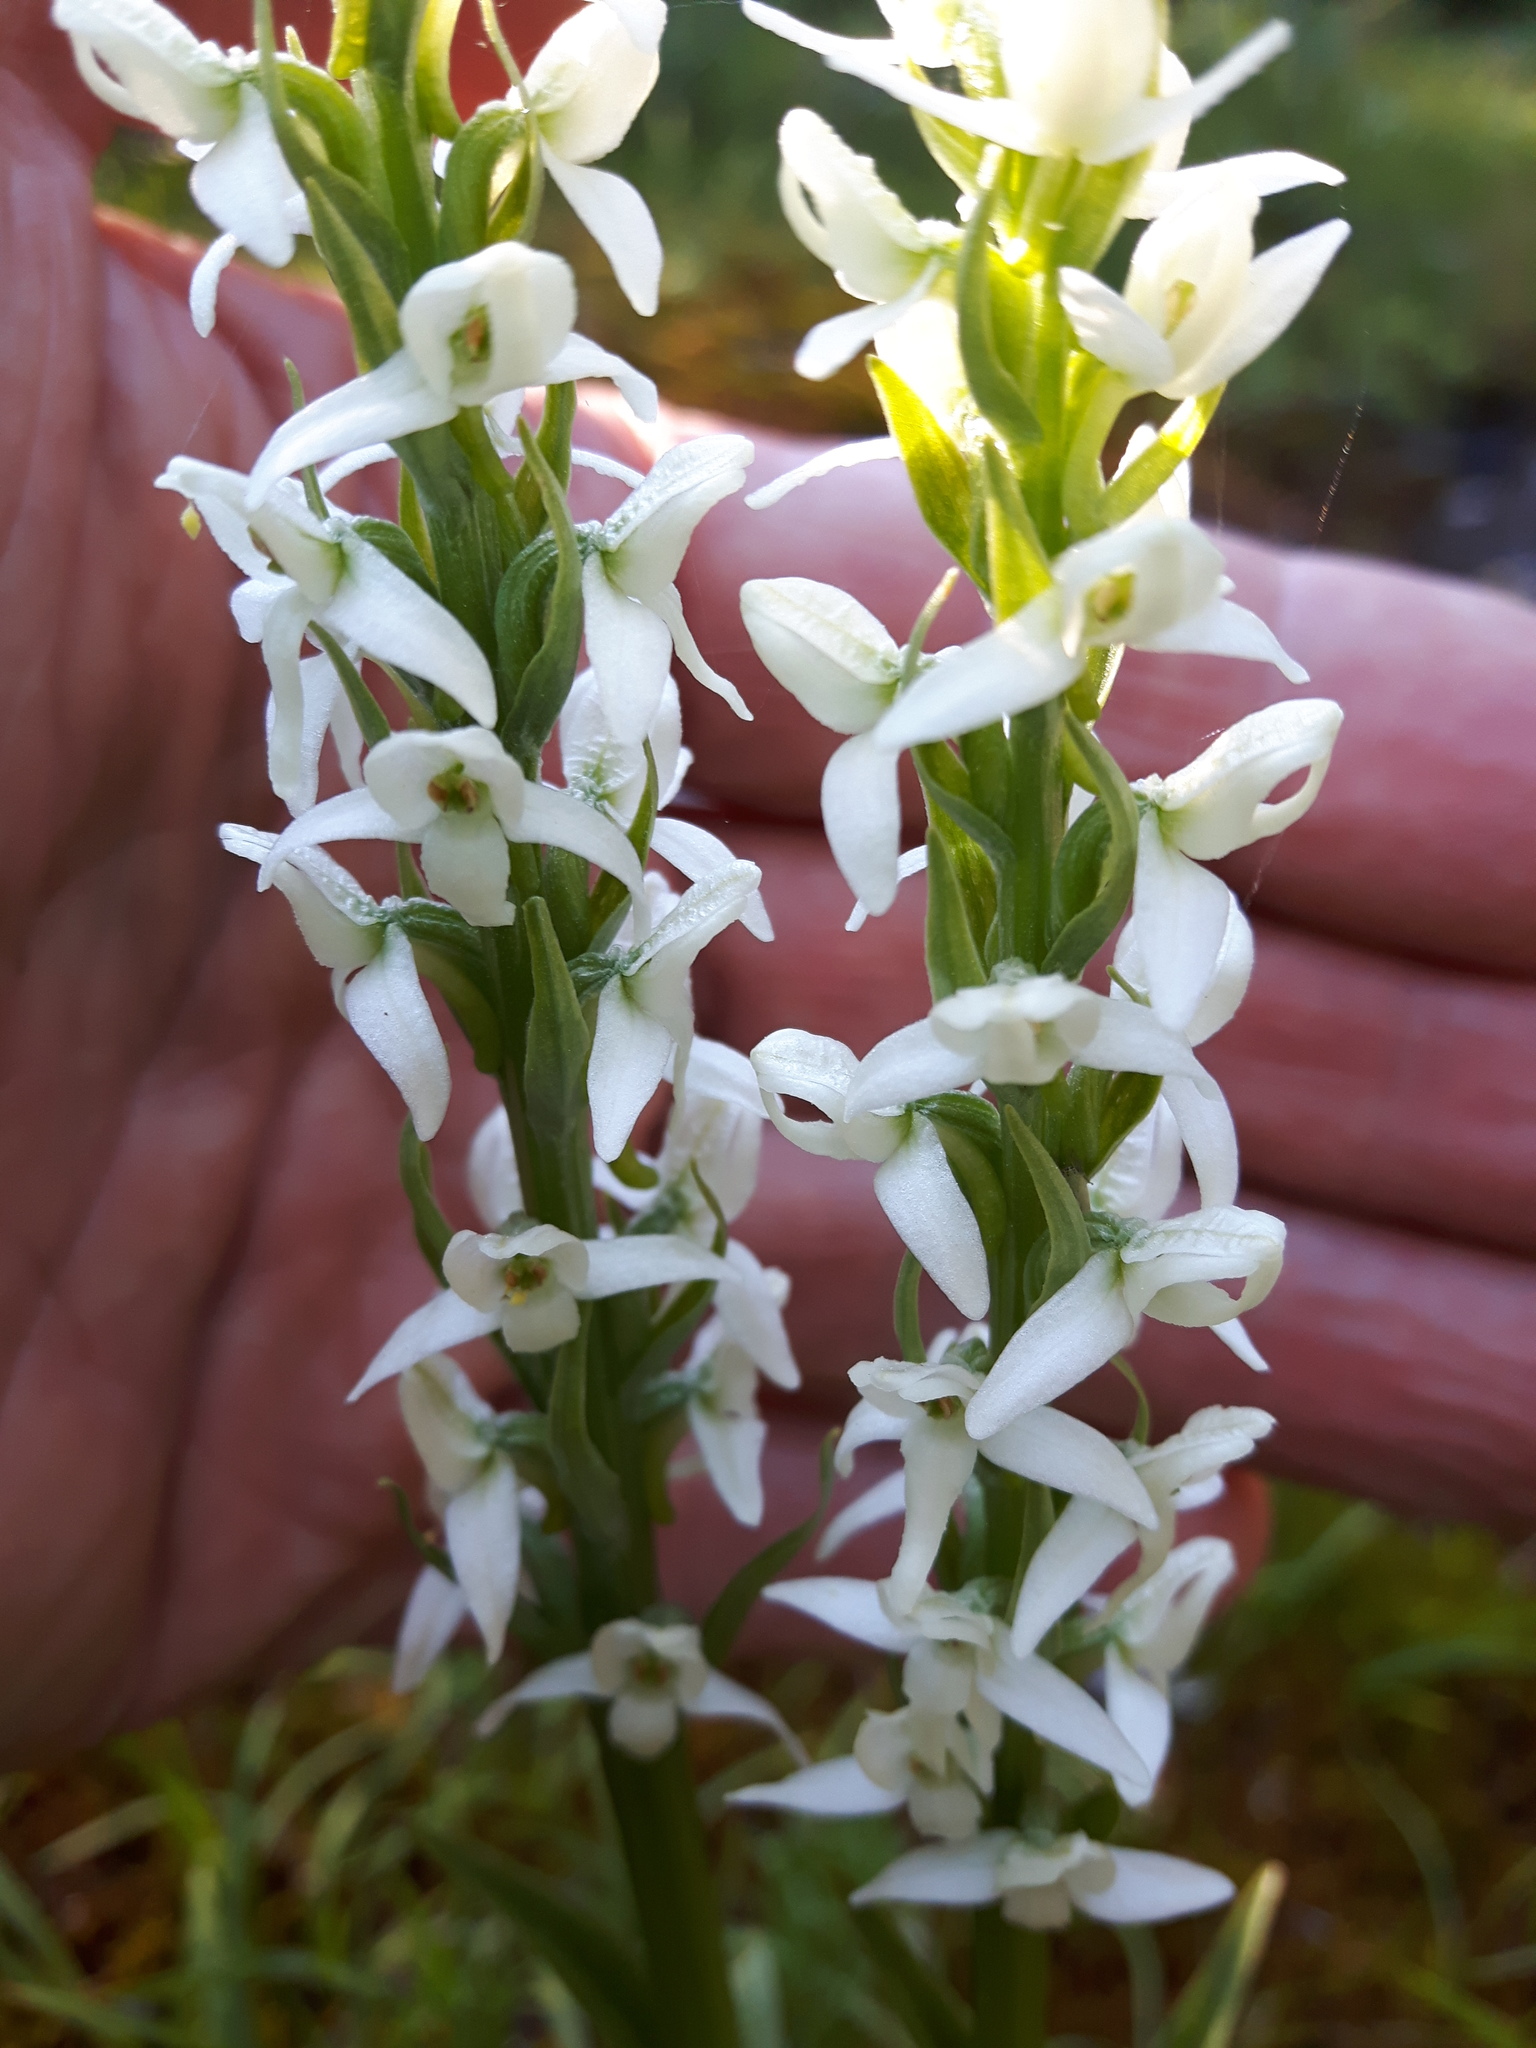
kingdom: Plantae
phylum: Tracheophyta
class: Liliopsida
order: Asparagales
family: Orchidaceae
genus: Platanthera
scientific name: Platanthera dilatata
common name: Bog candles
